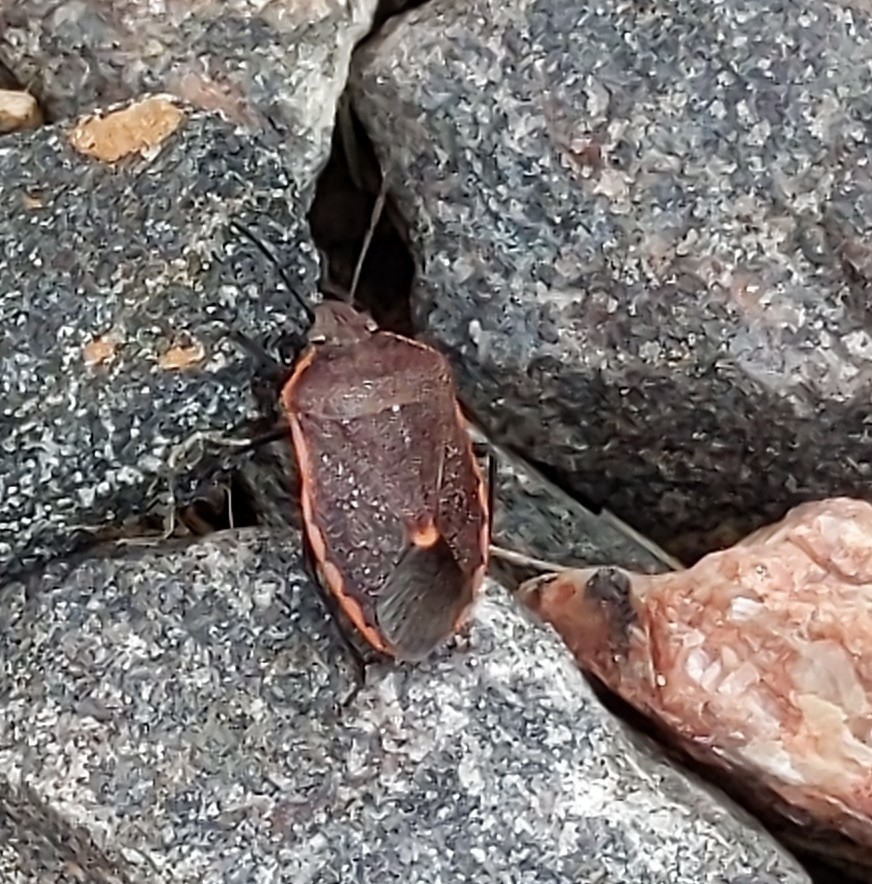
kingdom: Animalia
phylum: Arthropoda
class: Insecta
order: Hemiptera
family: Pentatomidae
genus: Chlorochroa
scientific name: Chlorochroa ligata
